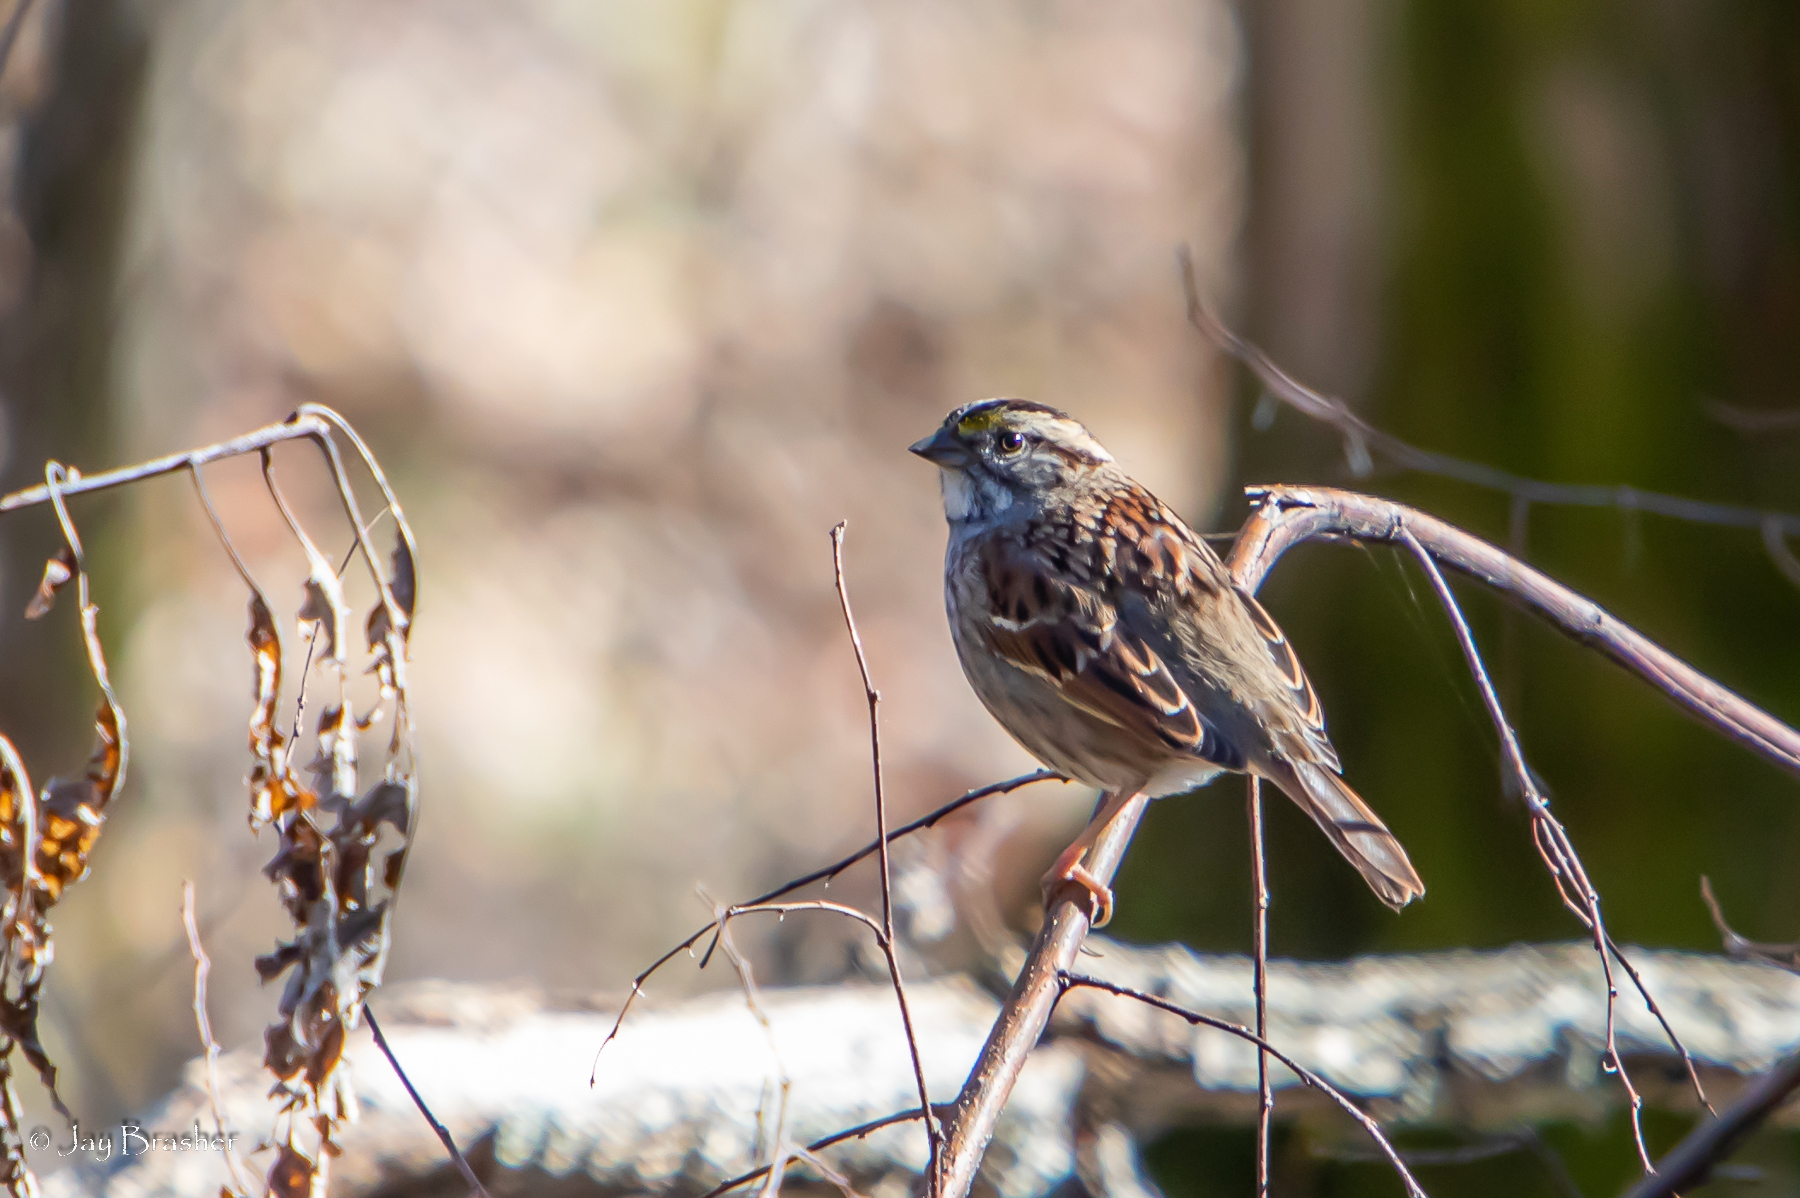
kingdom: Animalia
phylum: Chordata
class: Aves
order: Passeriformes
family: Passerellidae
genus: Zonotrichia
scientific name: Zonotrichia albicollis
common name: White-throated sparrow
